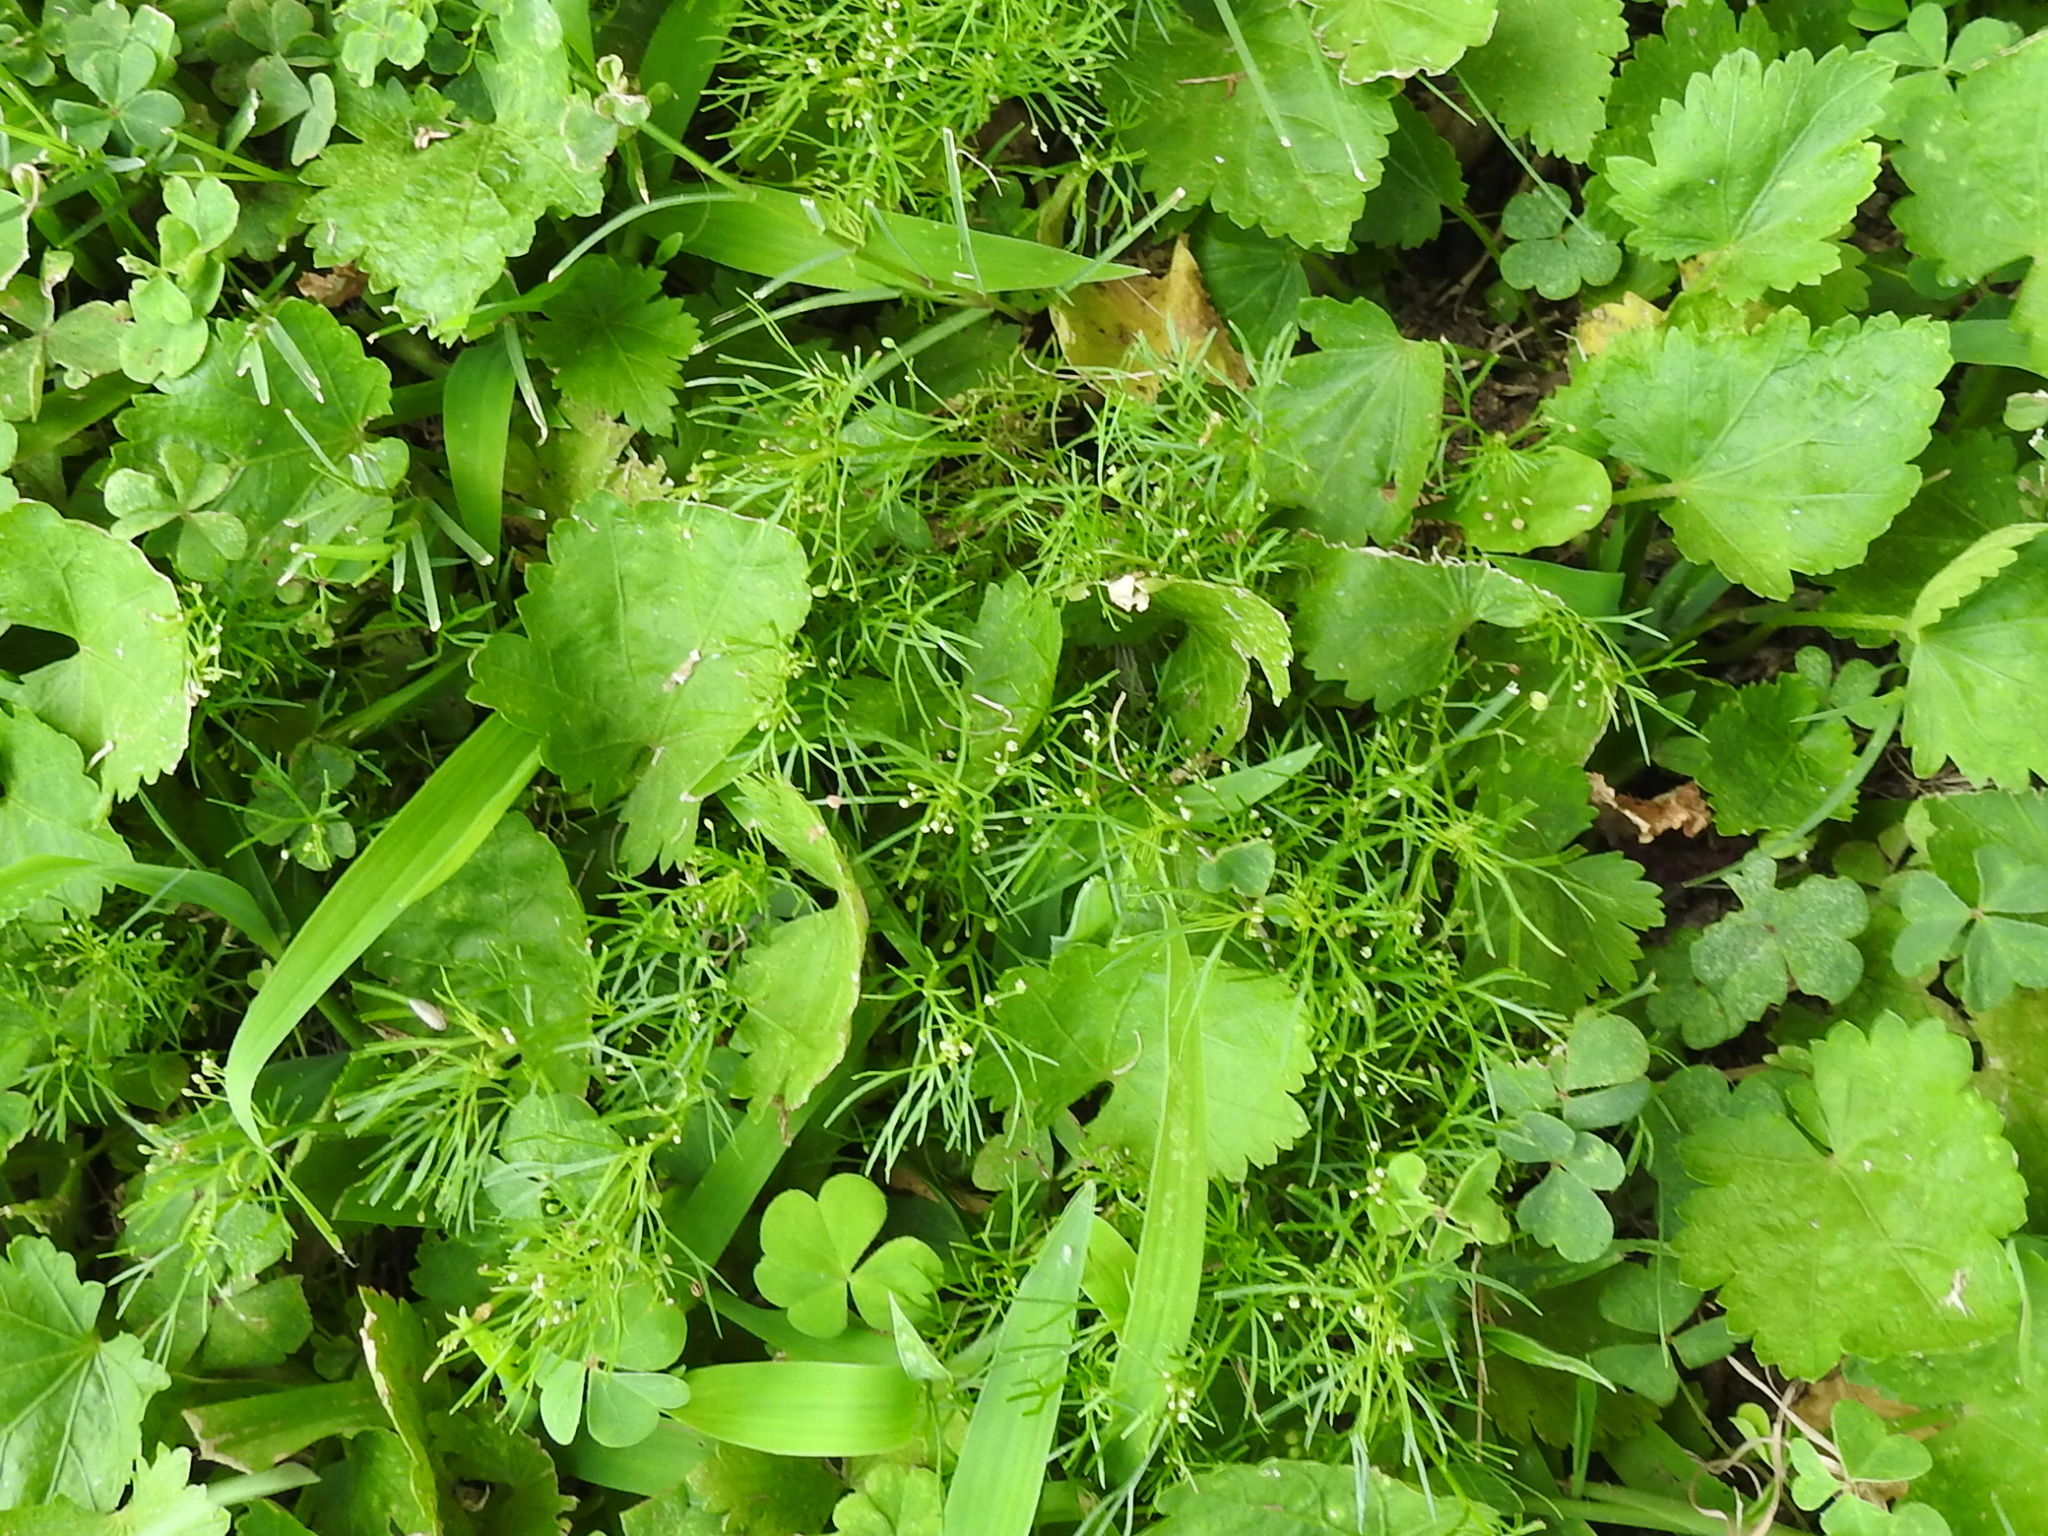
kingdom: Plantae
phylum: Tracheophyta
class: Magnoliopsida
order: Apiales
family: Apiaceae
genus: Cyclospermum
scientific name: Cyclospermum leptophyllum
